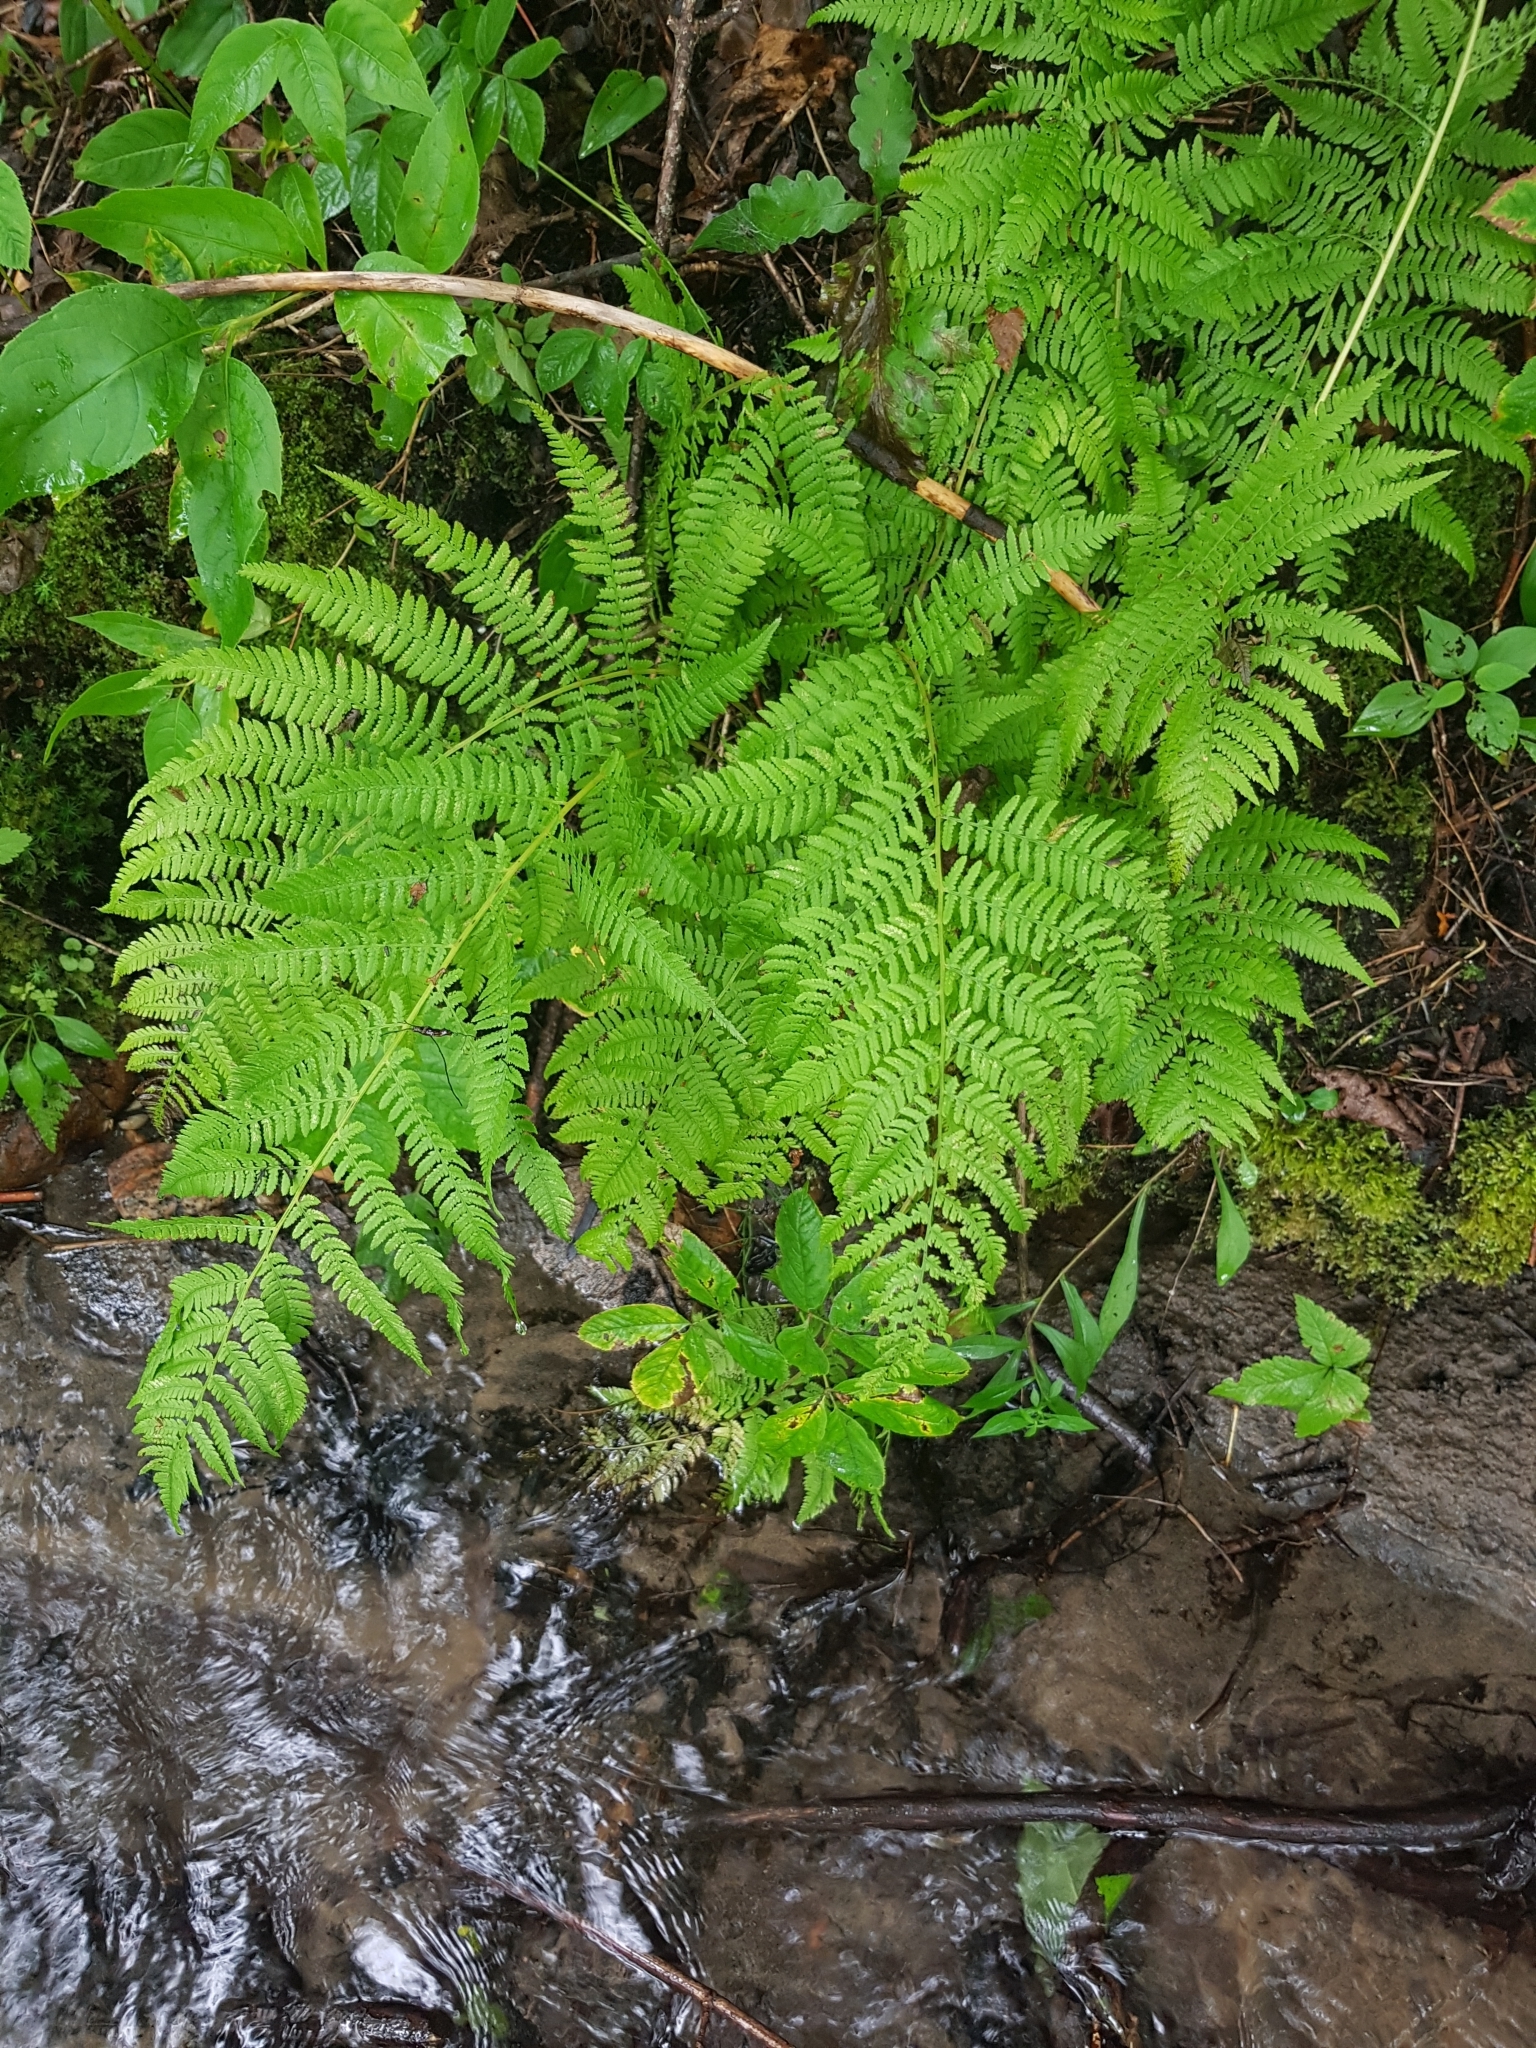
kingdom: Plantae
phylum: Tracheophyta
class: Polypodiopsida
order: Polypodiales
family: Athyriaceae
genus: Athyrium
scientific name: Athyrium angustum
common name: Northern lady fern
